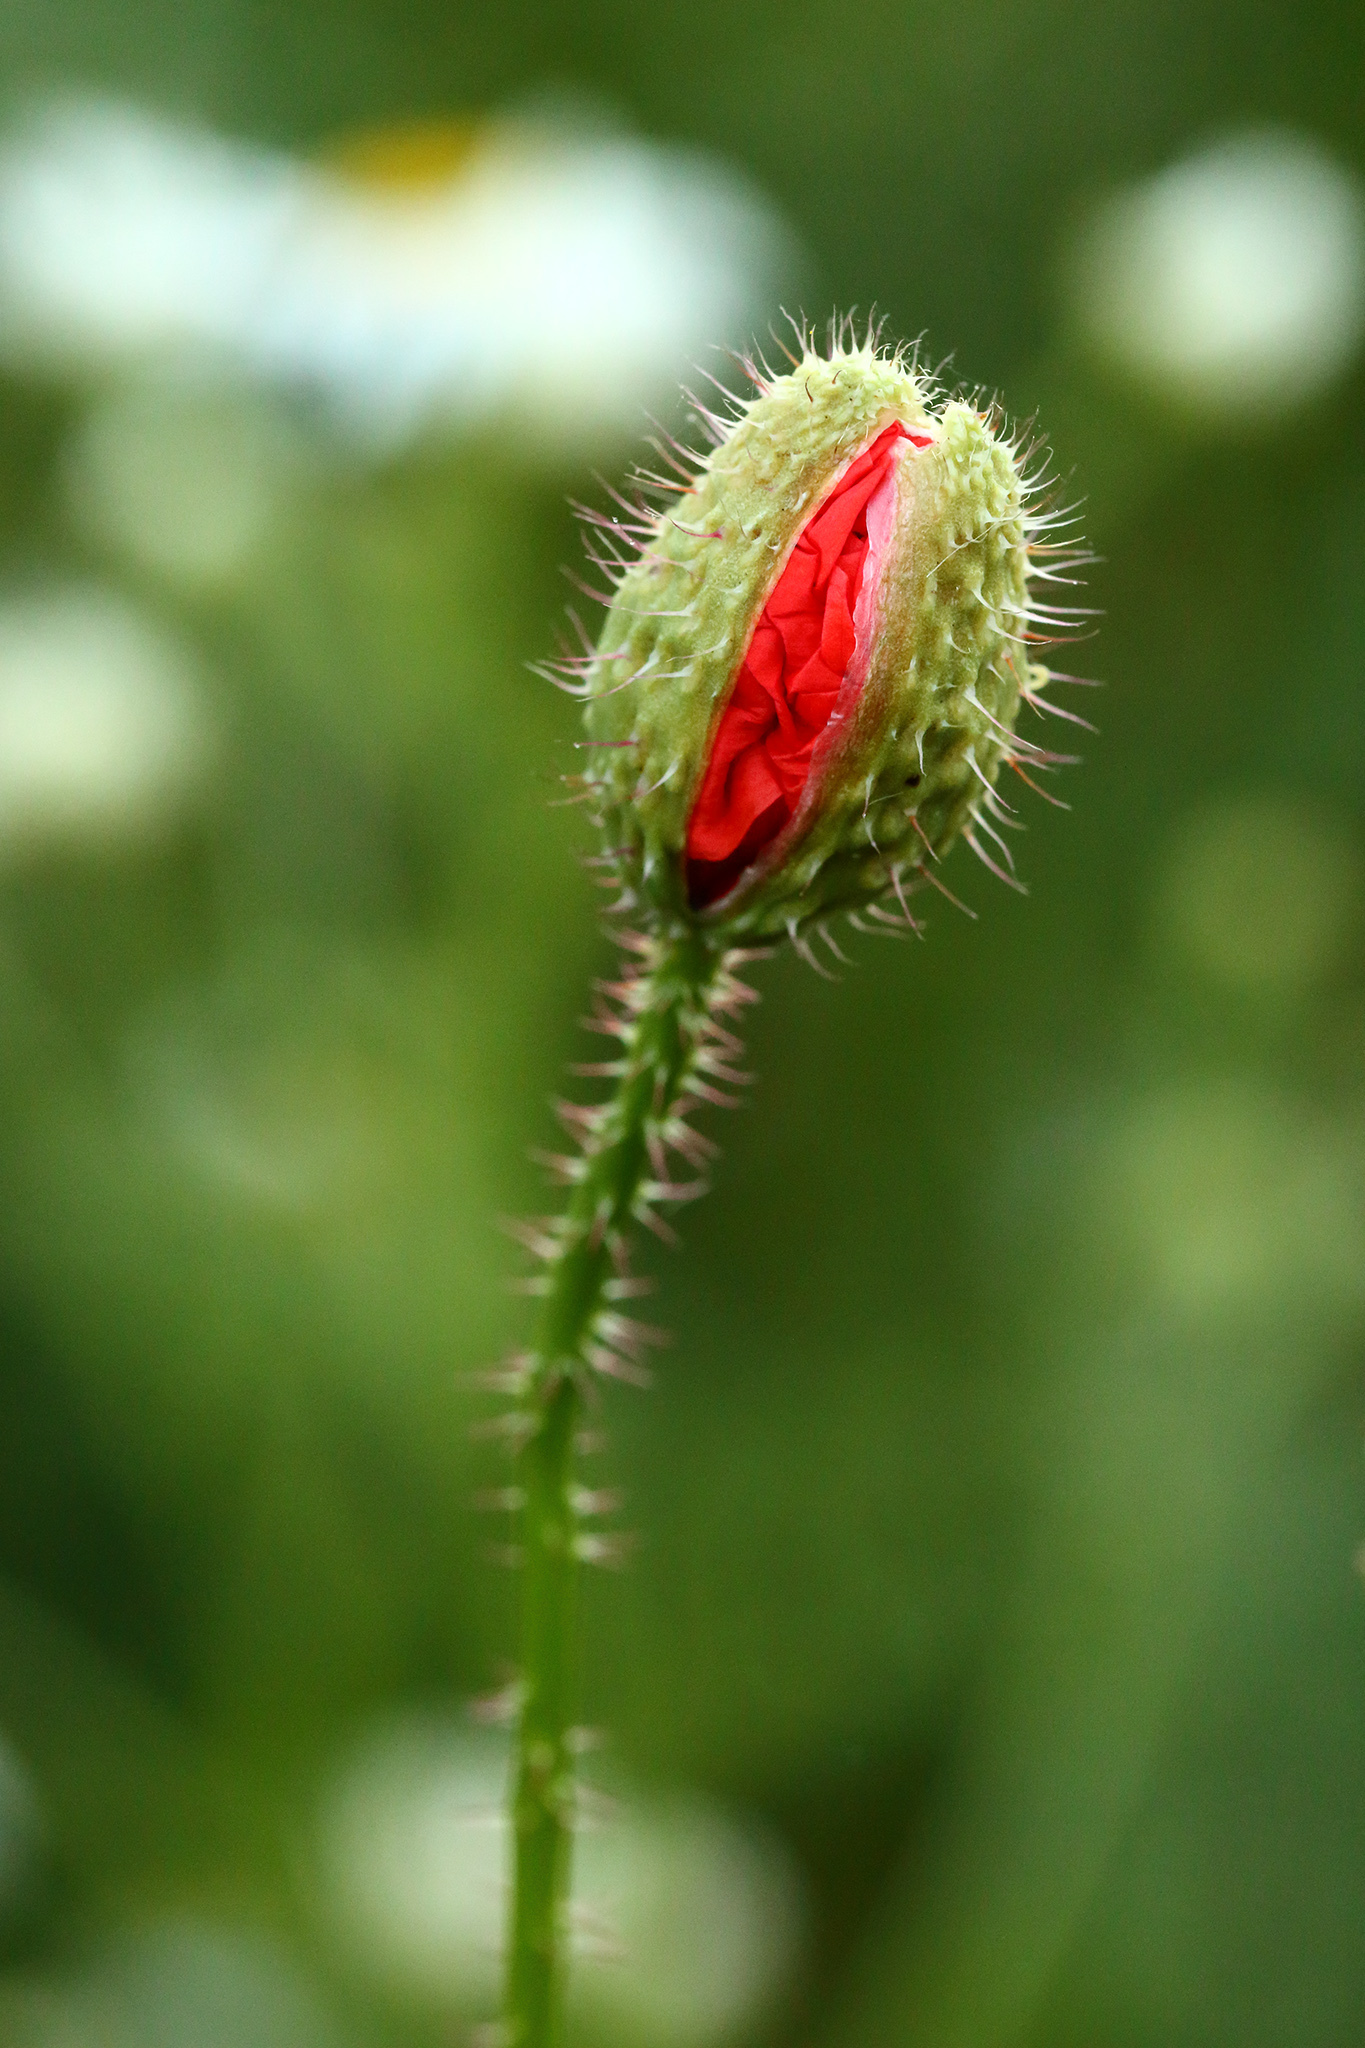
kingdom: Plantae
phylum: Tracheophyta
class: Magnoliopsida
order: Ranunculales
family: Papaveraceae
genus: Papaver
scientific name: Papaver rhoeas
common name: Corn poppy
